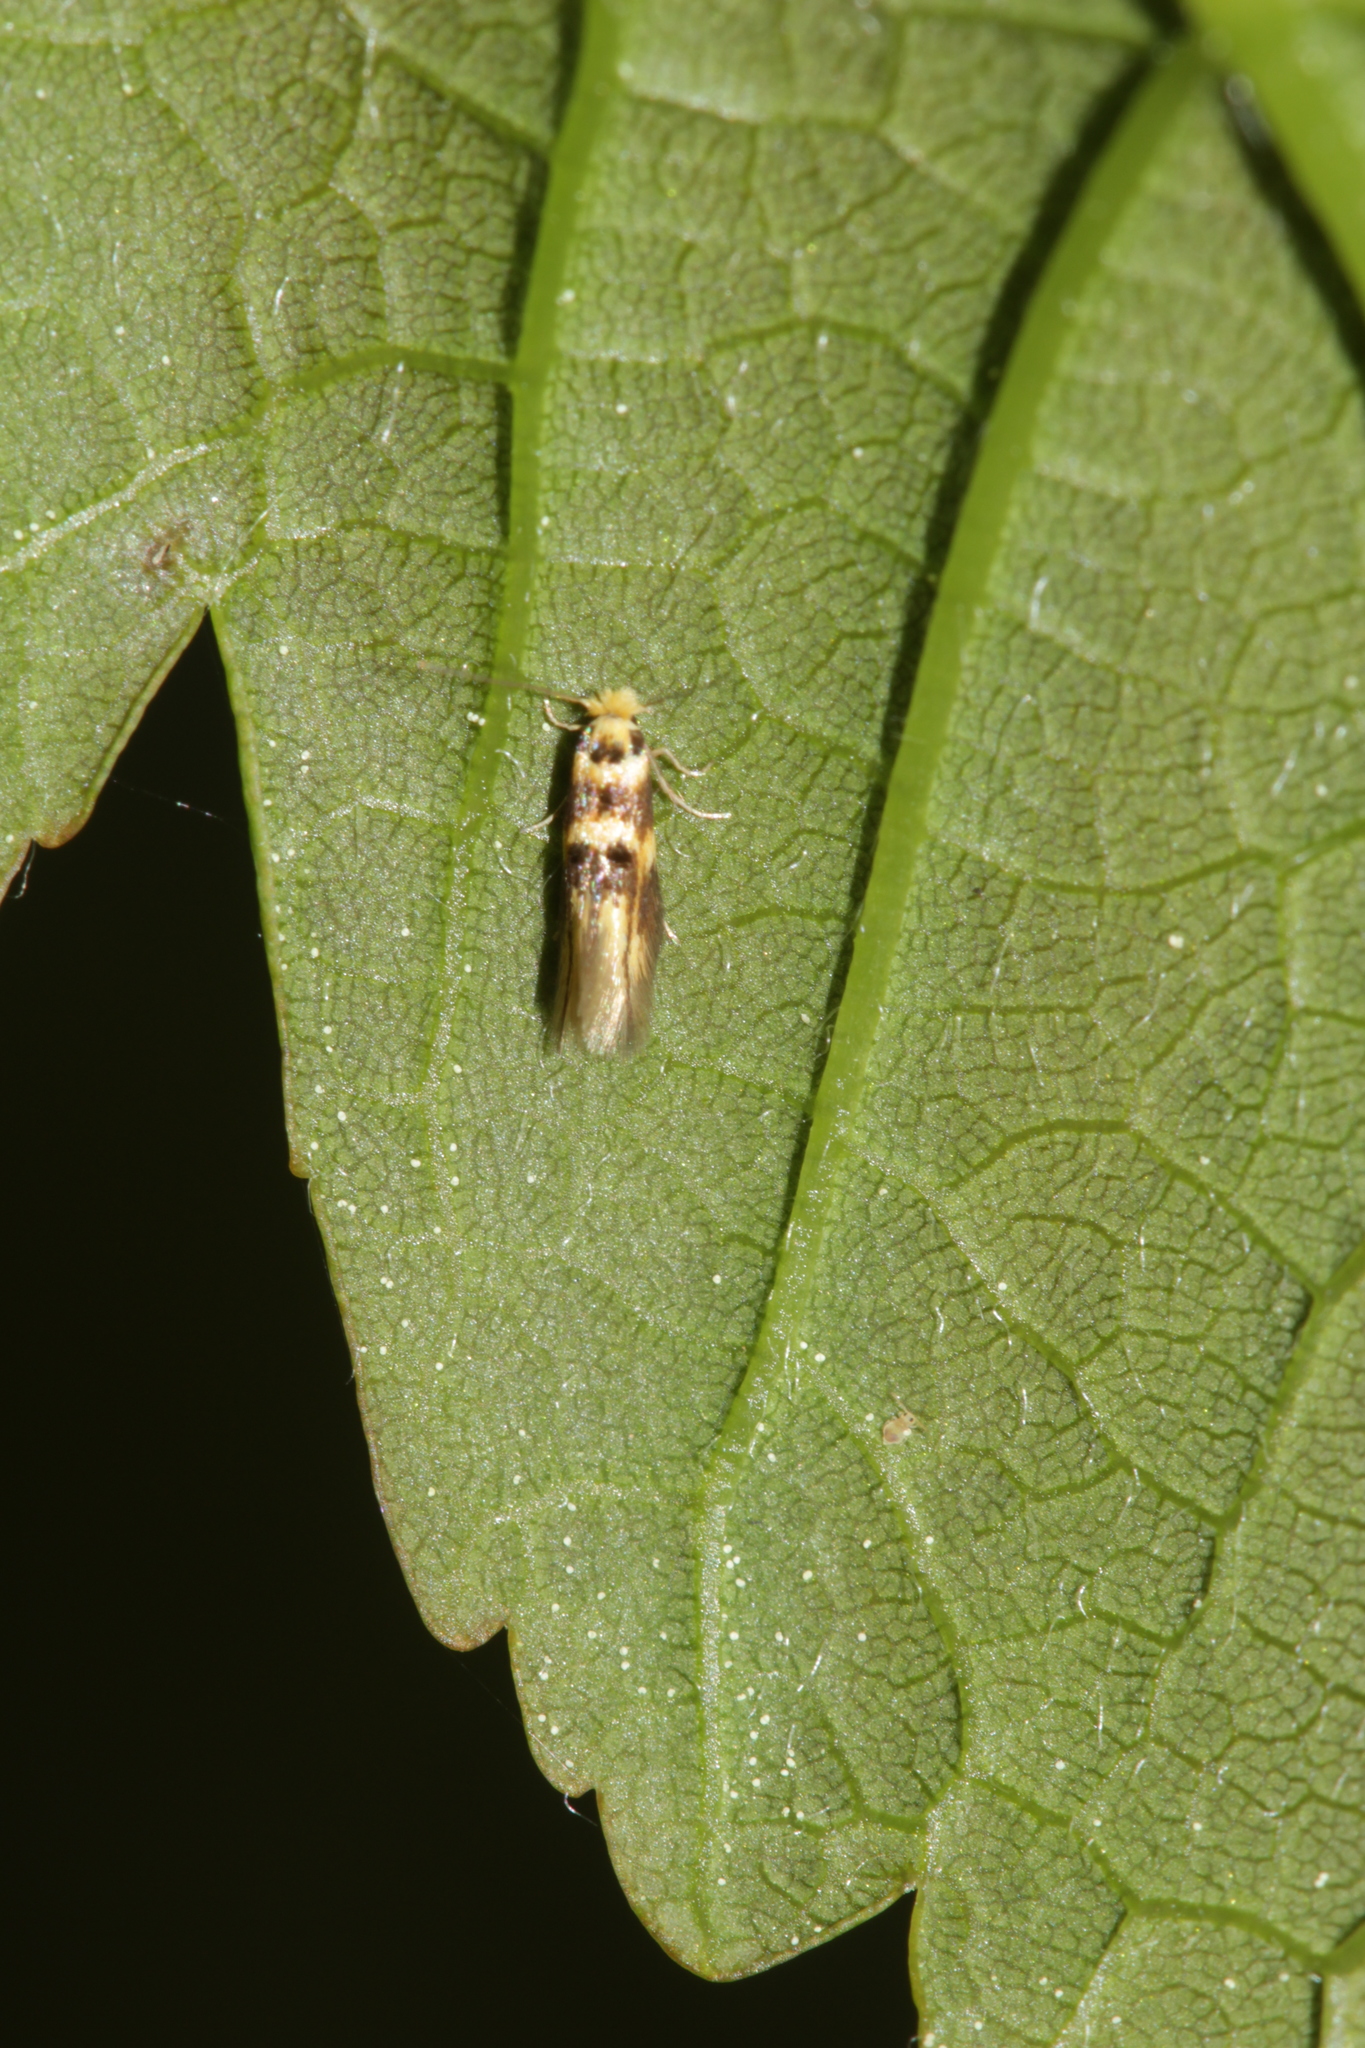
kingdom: Animalia
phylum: Arthropoda
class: Insecta
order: Lepidoptera
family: Bucculatricidae
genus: Bucculatrix
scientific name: Bucculatrix thoracella
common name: Lime bent-wing
